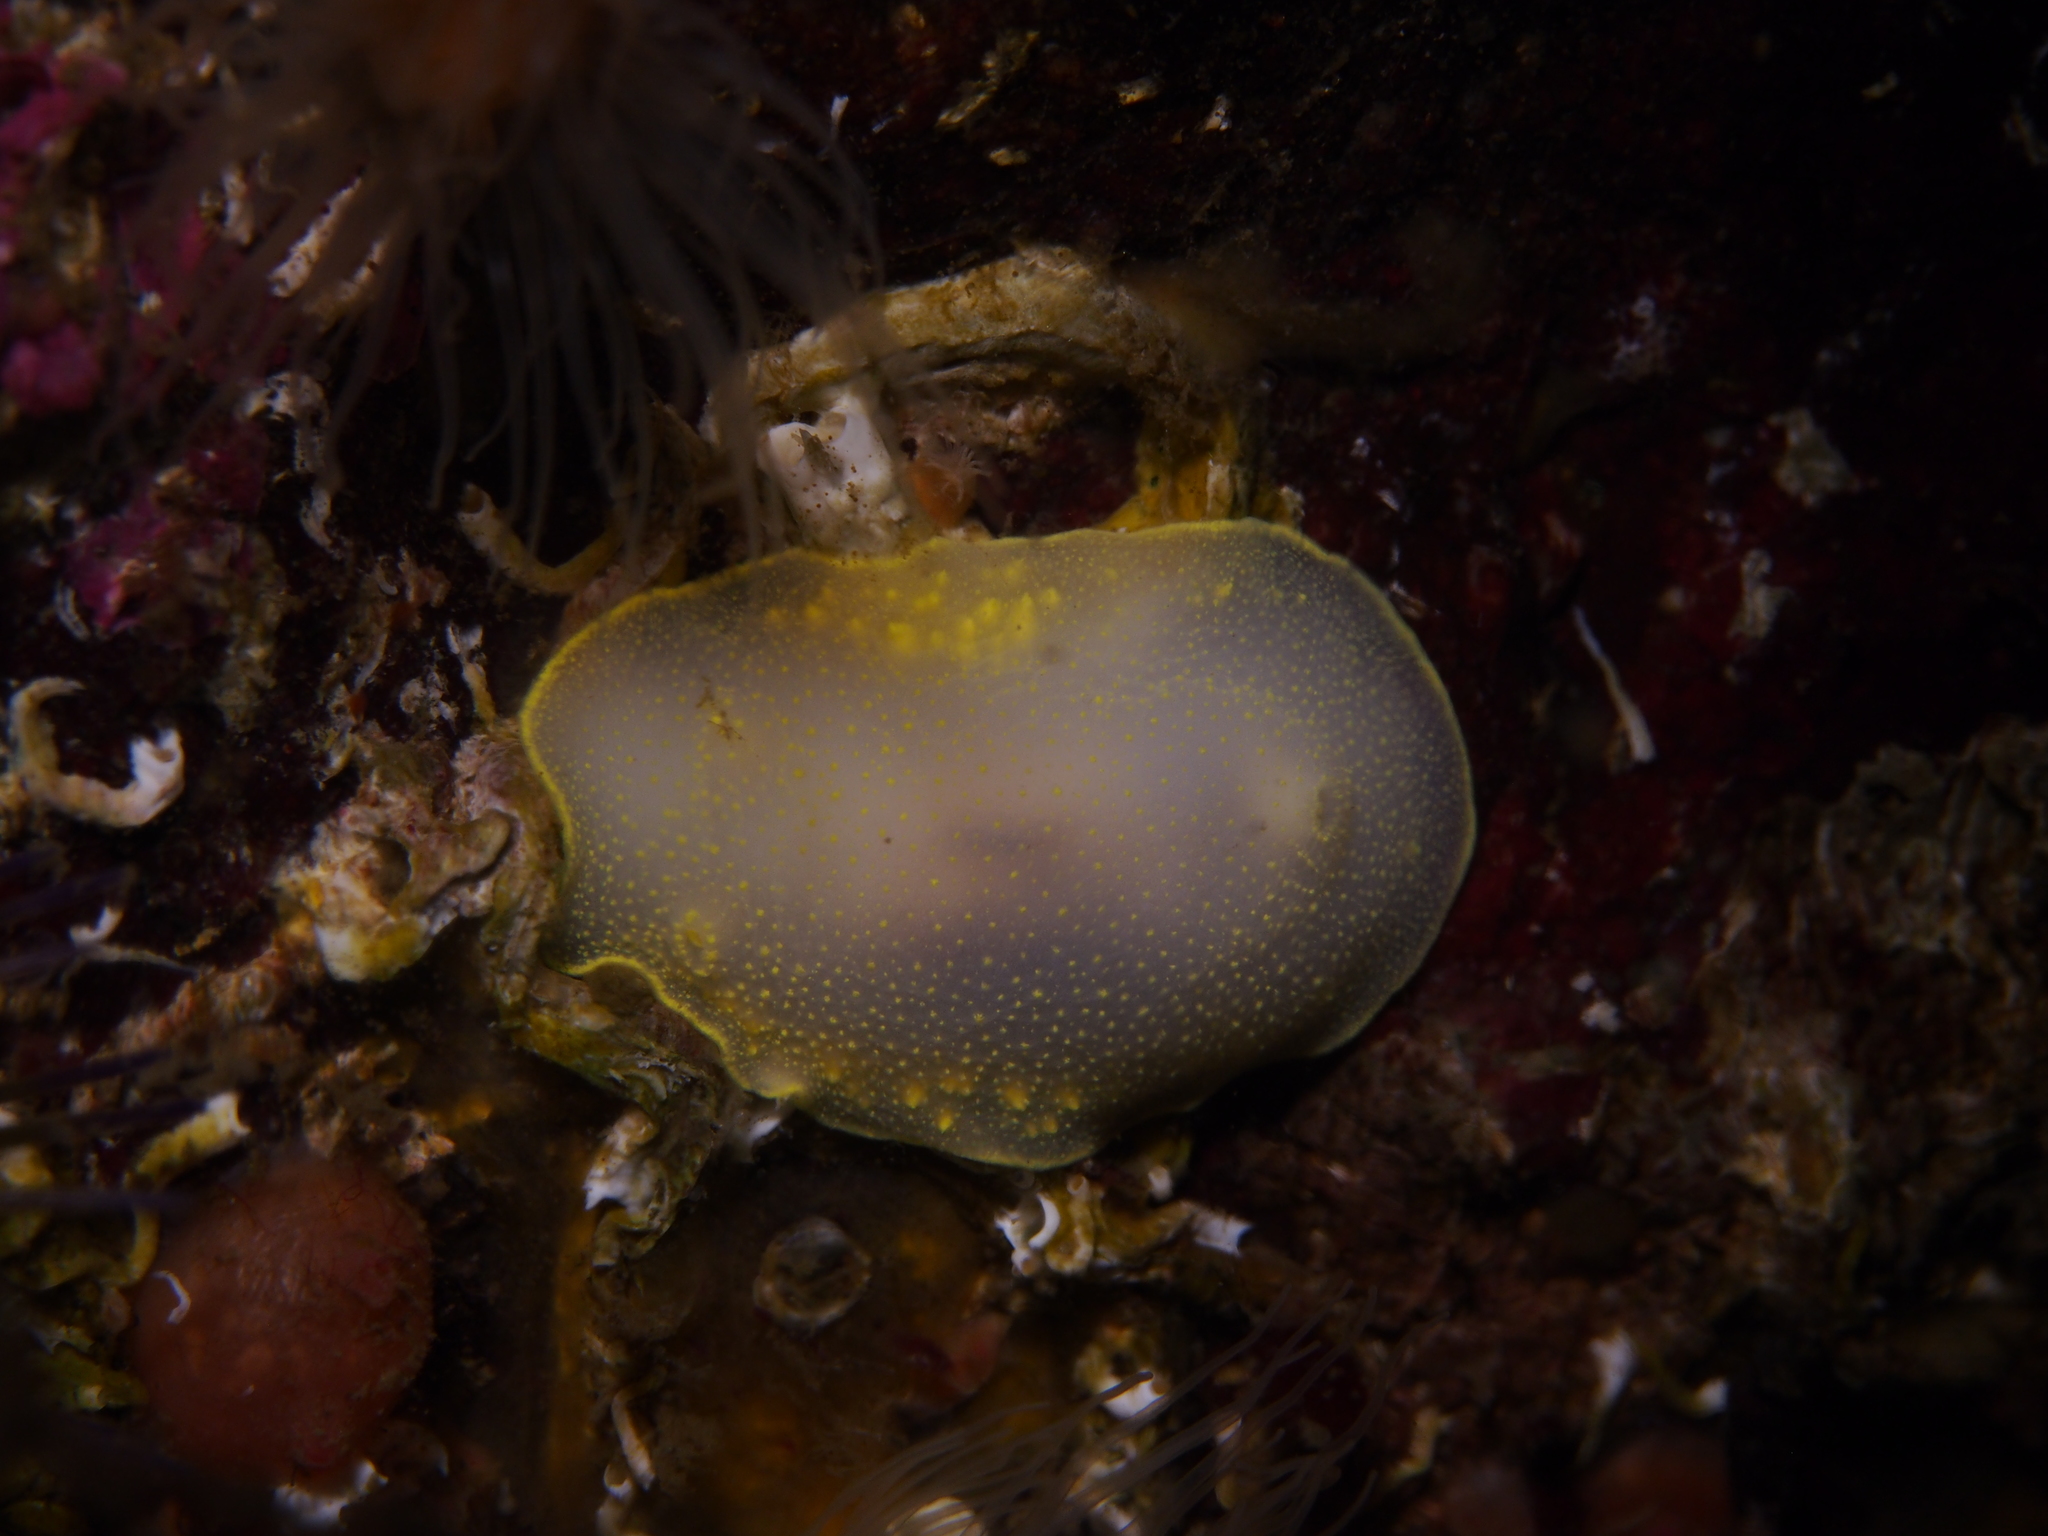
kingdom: Animalia
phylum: Mollusca
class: Gastropoda
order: Nudibranchia
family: Cadlinidae
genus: Cadlina
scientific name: Cadlina laevis
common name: White atlantic cadlina
